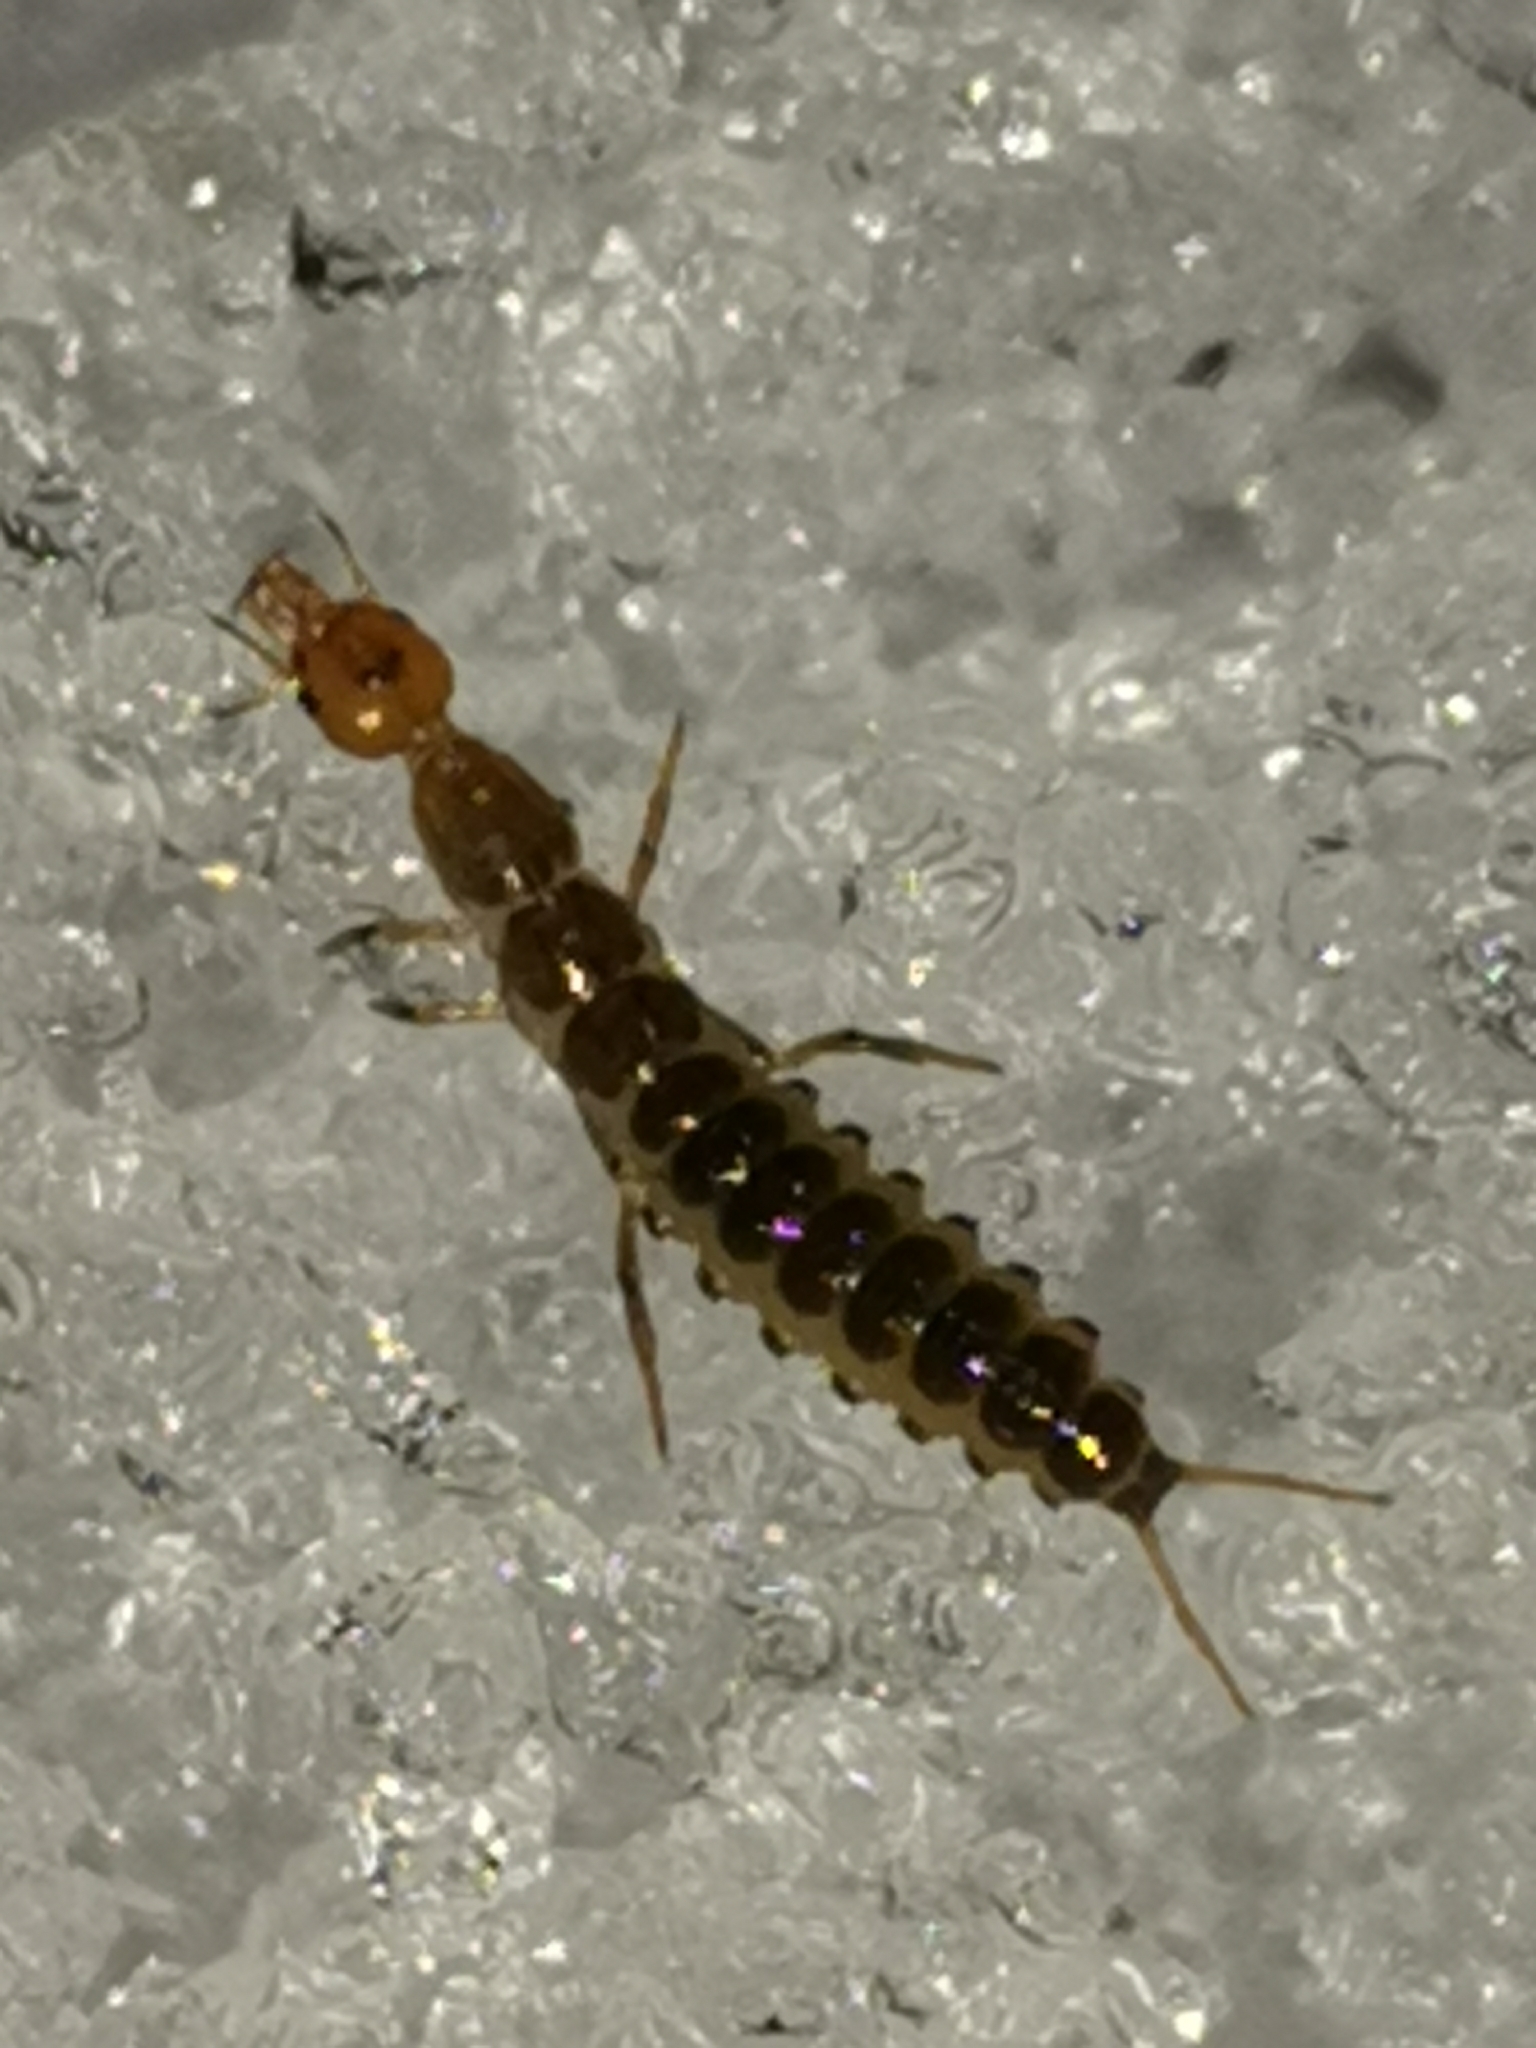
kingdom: Animalia
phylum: Arthropoda
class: Insecta
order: Coleoptera
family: Carabidae
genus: Leistus
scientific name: Leistus
